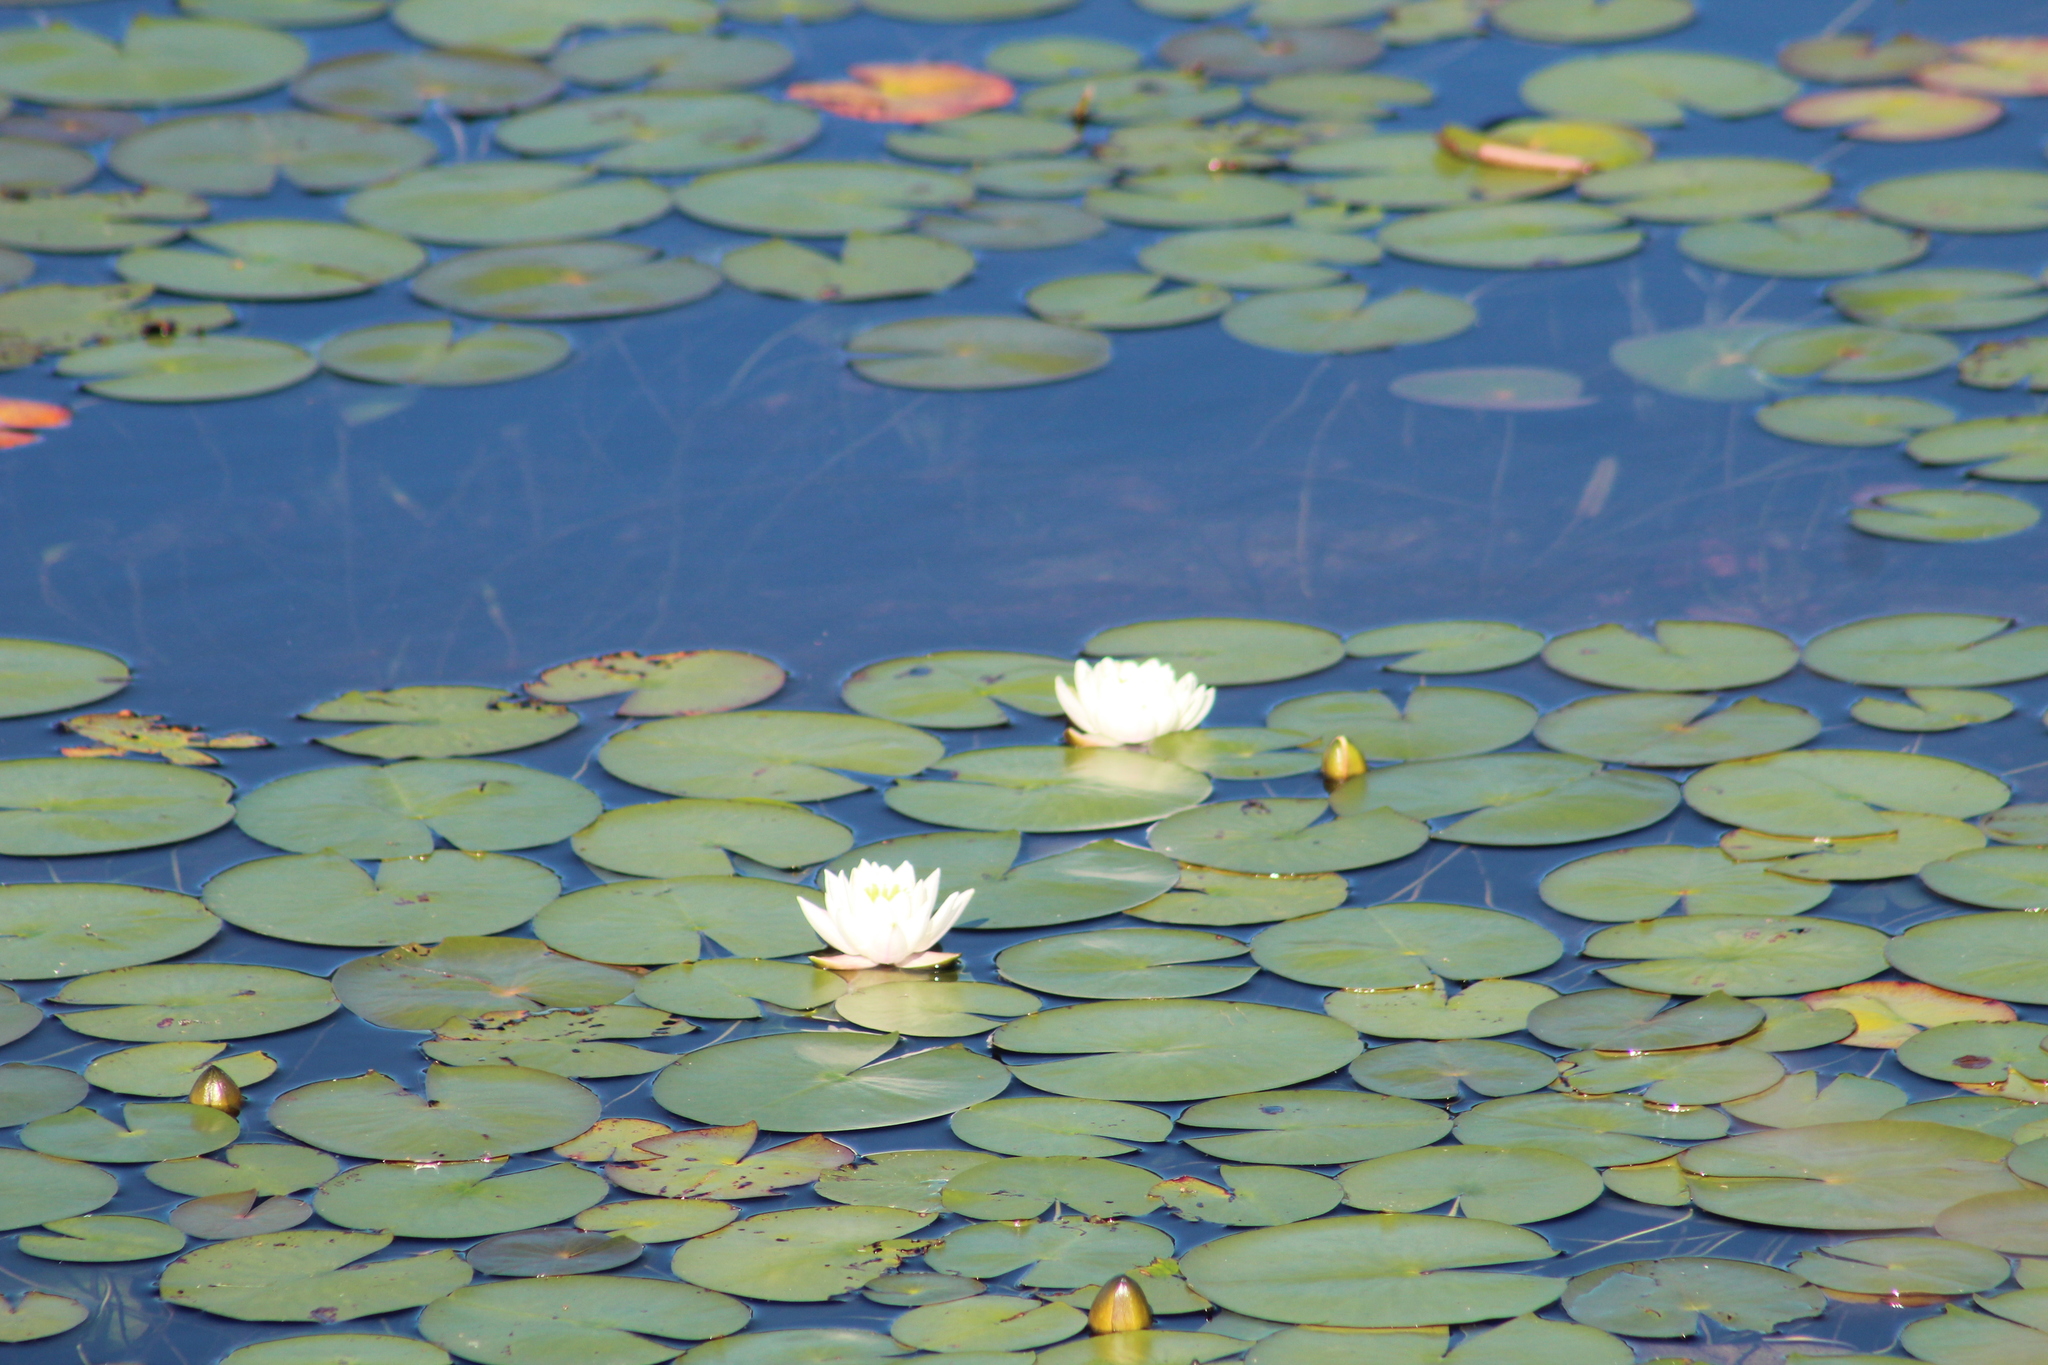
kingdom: Plantae
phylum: Tracheophyta
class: Magnoliopsida
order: Nymphaeales
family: Nymphaeaceae
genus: Nymphaea
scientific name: Nymphaea odorata
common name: Fragrant water-lily
